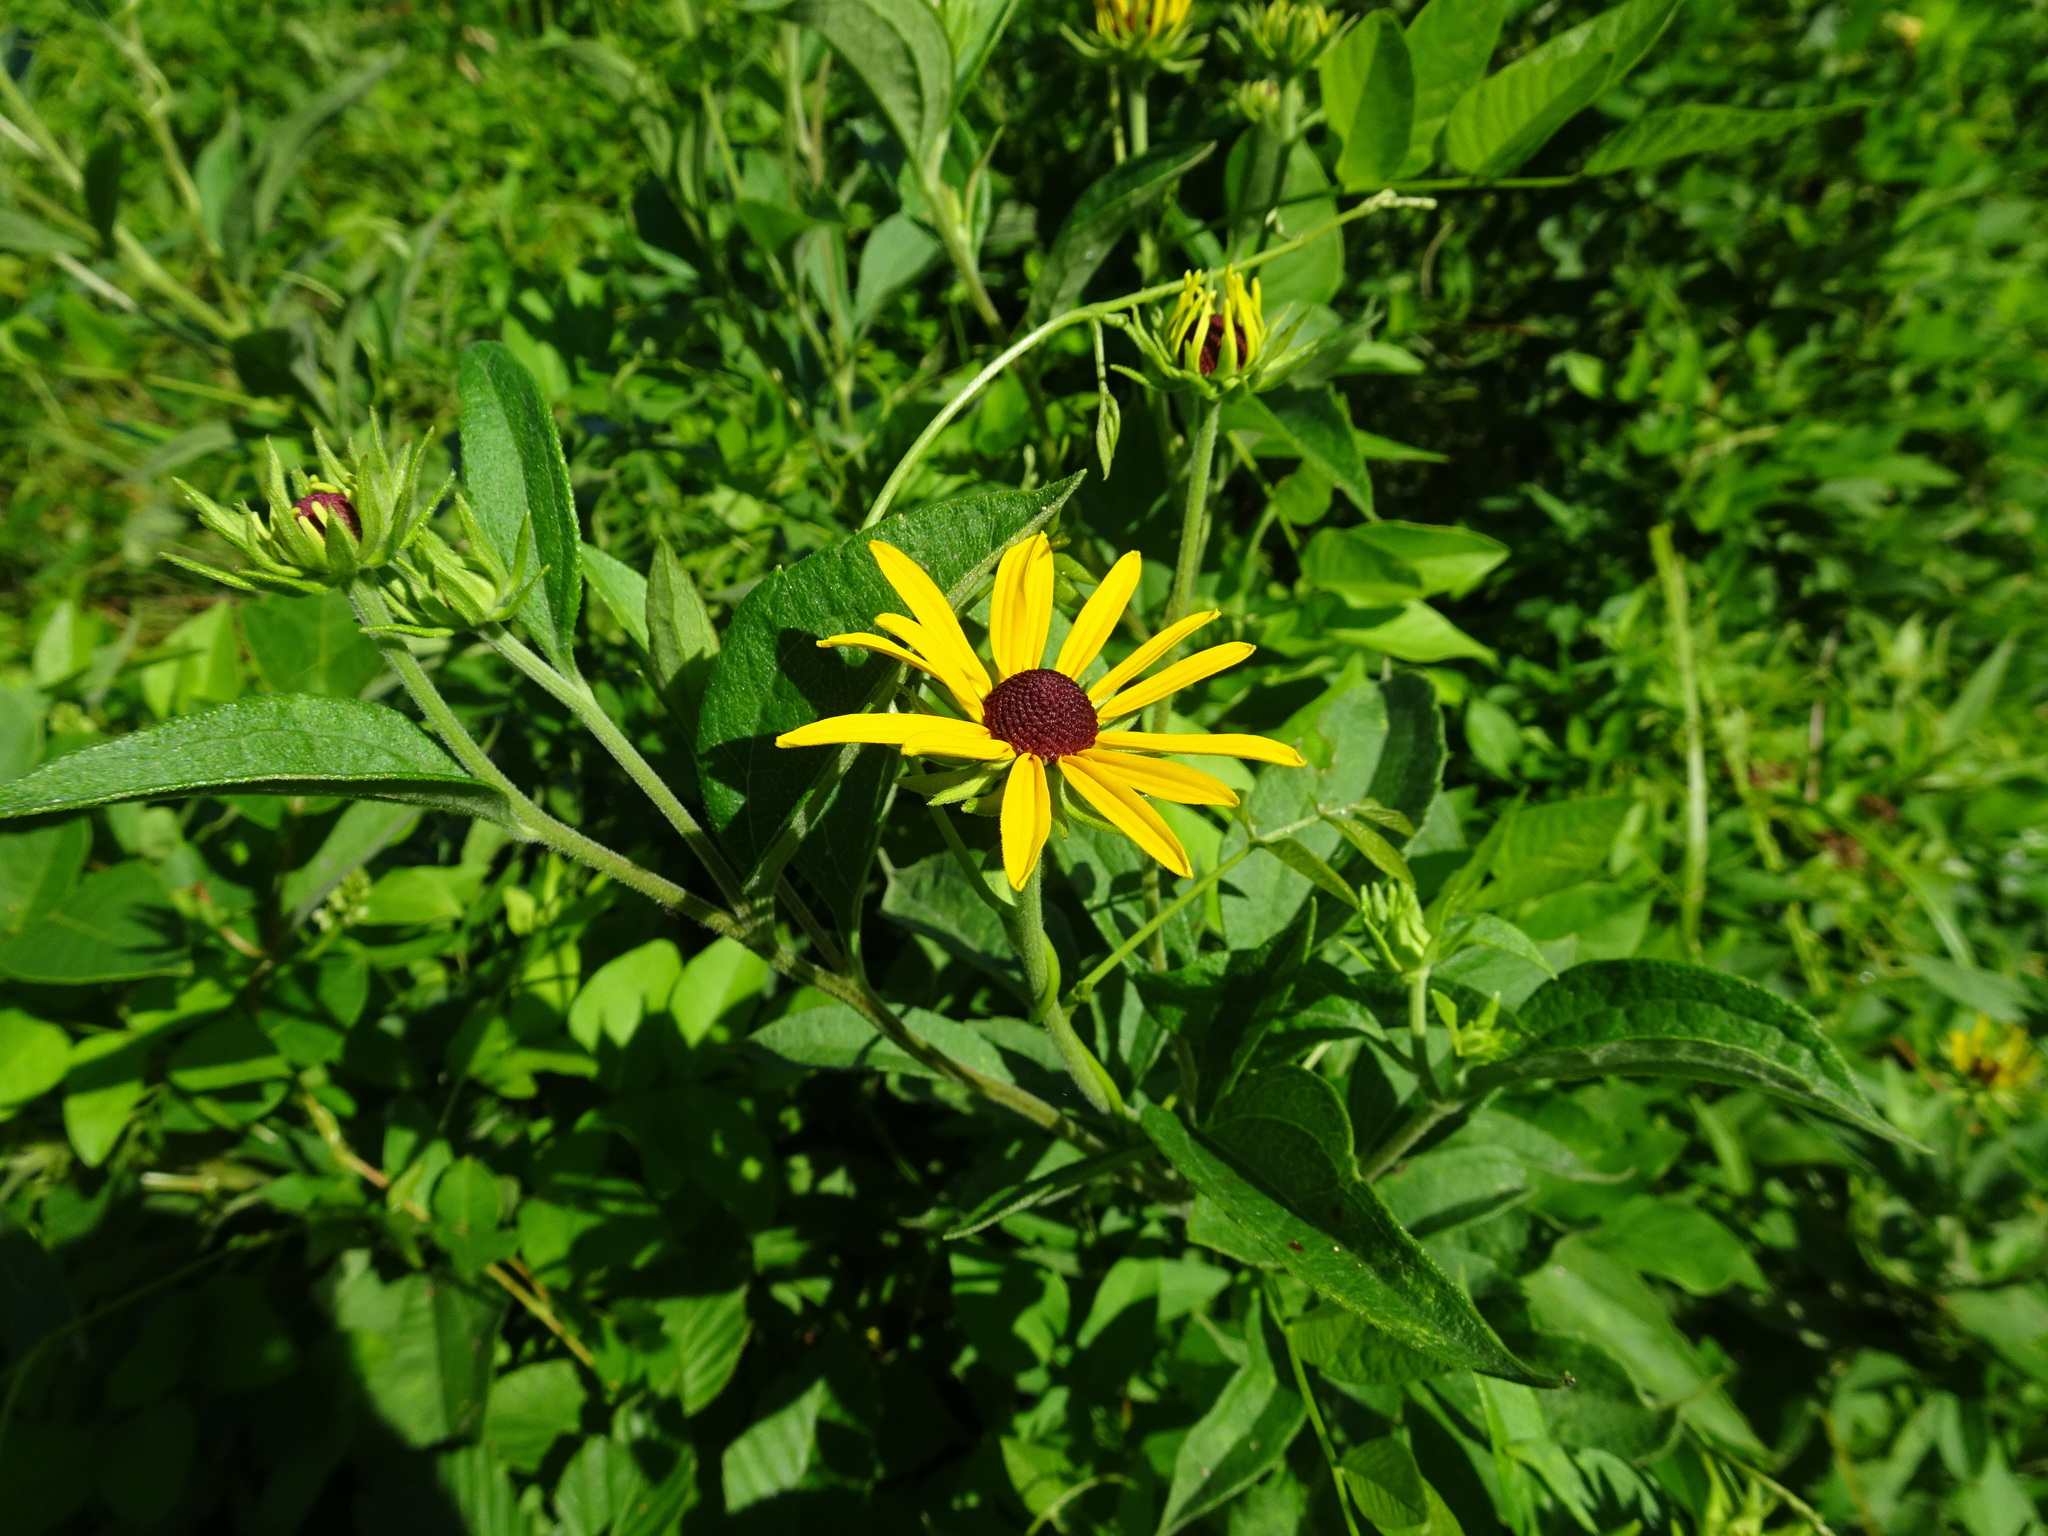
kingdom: Plantae
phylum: Tracheophyta
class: Magnoliopsida
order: Asterales
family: Asteraceae
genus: Rudbeckia
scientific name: Rudbeckia subtomentosa
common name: Sweet coneflower
